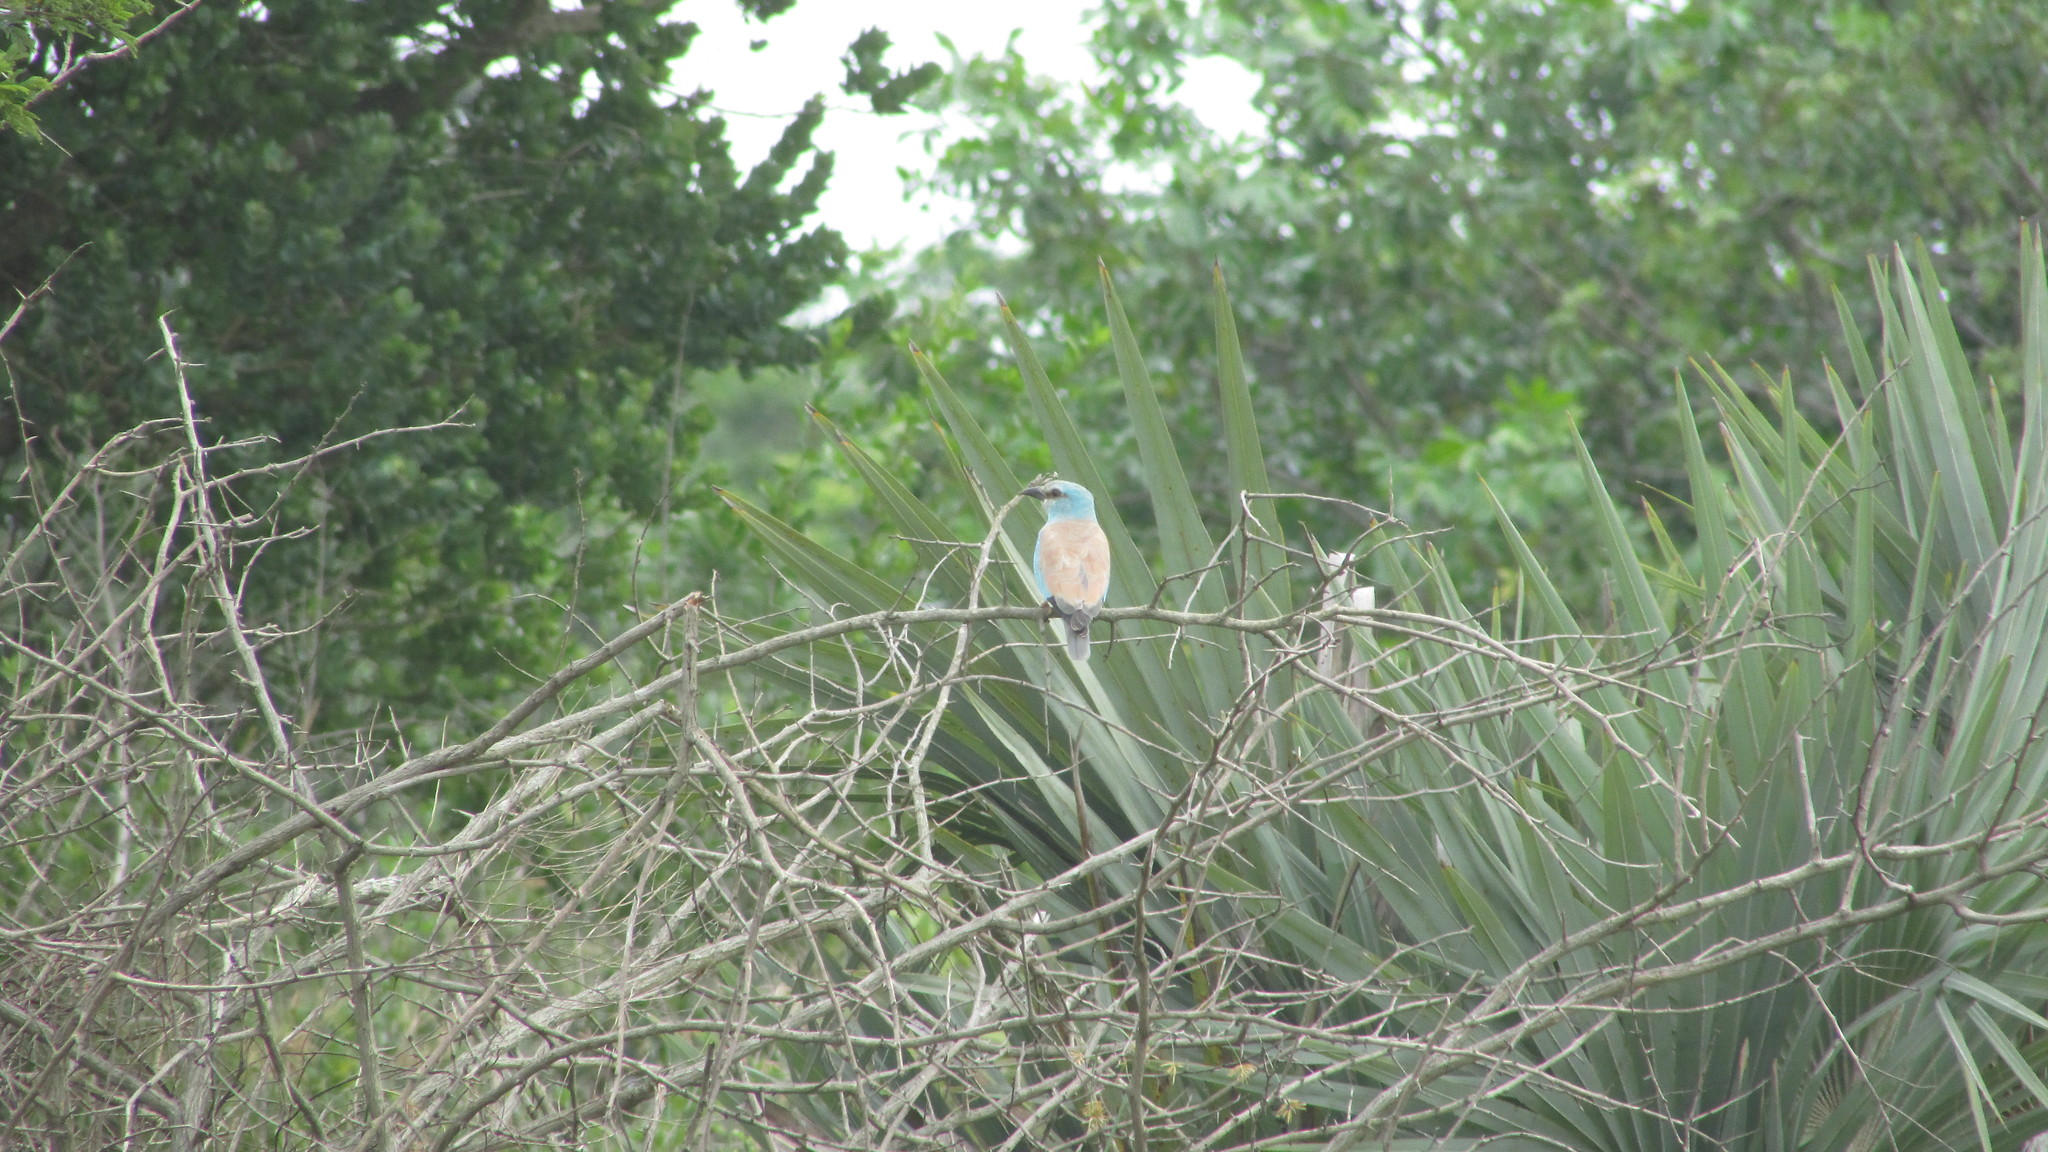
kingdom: Animalia
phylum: Chordata
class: Aves
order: Coraciiformes
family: Coraciidae
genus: Coracias
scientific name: Coracias garrulus
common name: European roller
